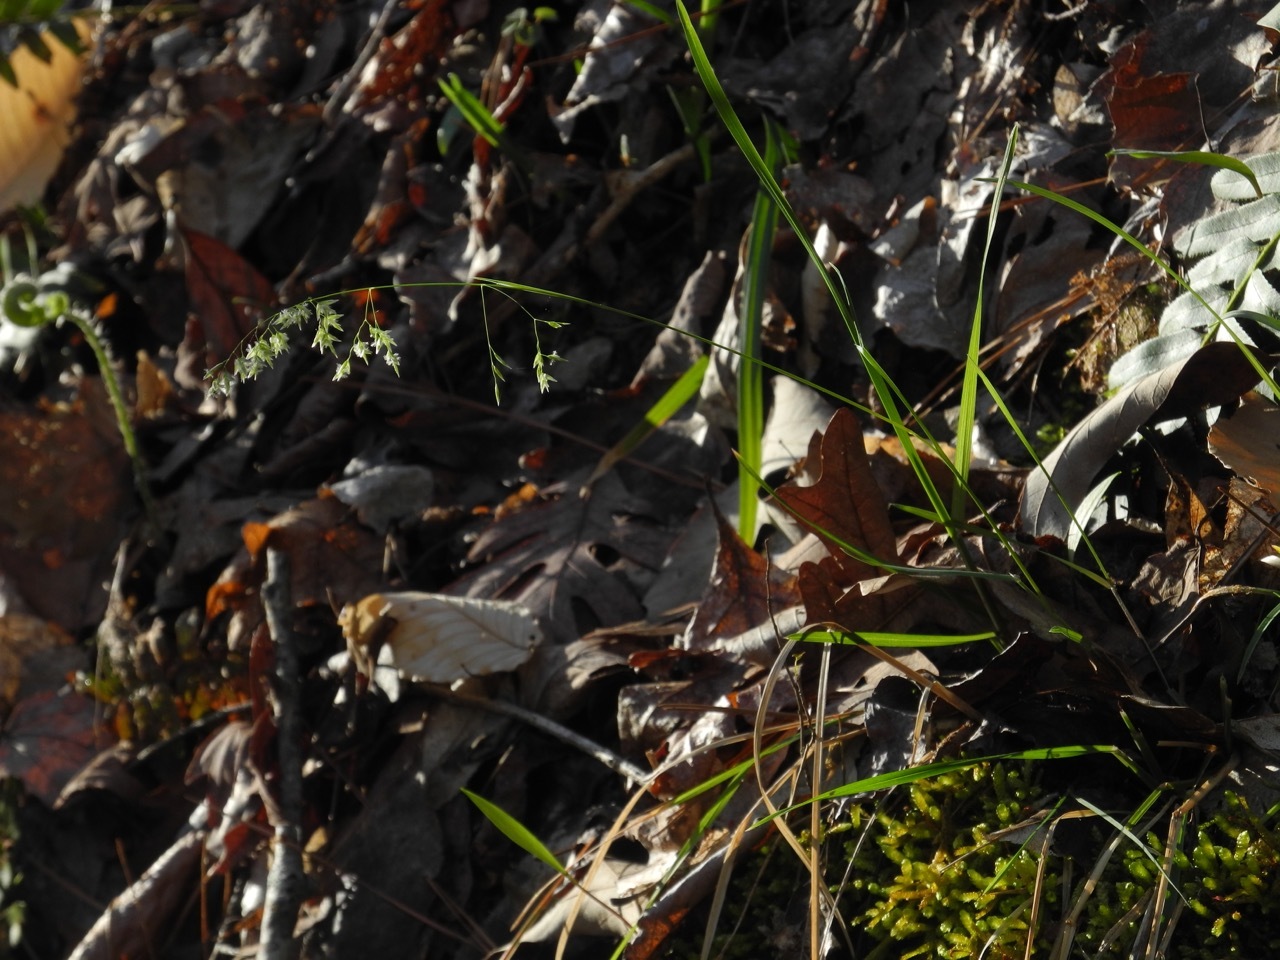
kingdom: Plantae
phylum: Tracheophyta
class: Liliopsida
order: Poales
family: Poaceae
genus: Poa
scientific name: Poa autumnalis
